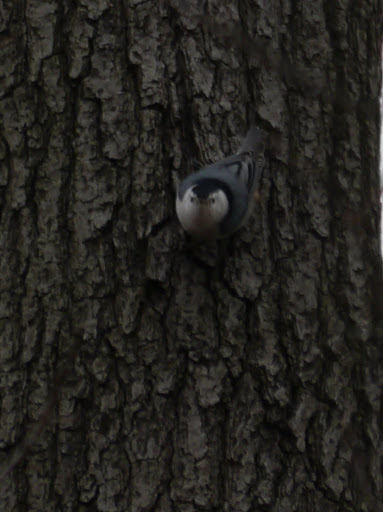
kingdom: Animalia
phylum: Chordata
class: Aves
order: Passeriformes
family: Sittidae
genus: Sitta
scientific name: Sitta carolinensis
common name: White-breasted nuthatch
